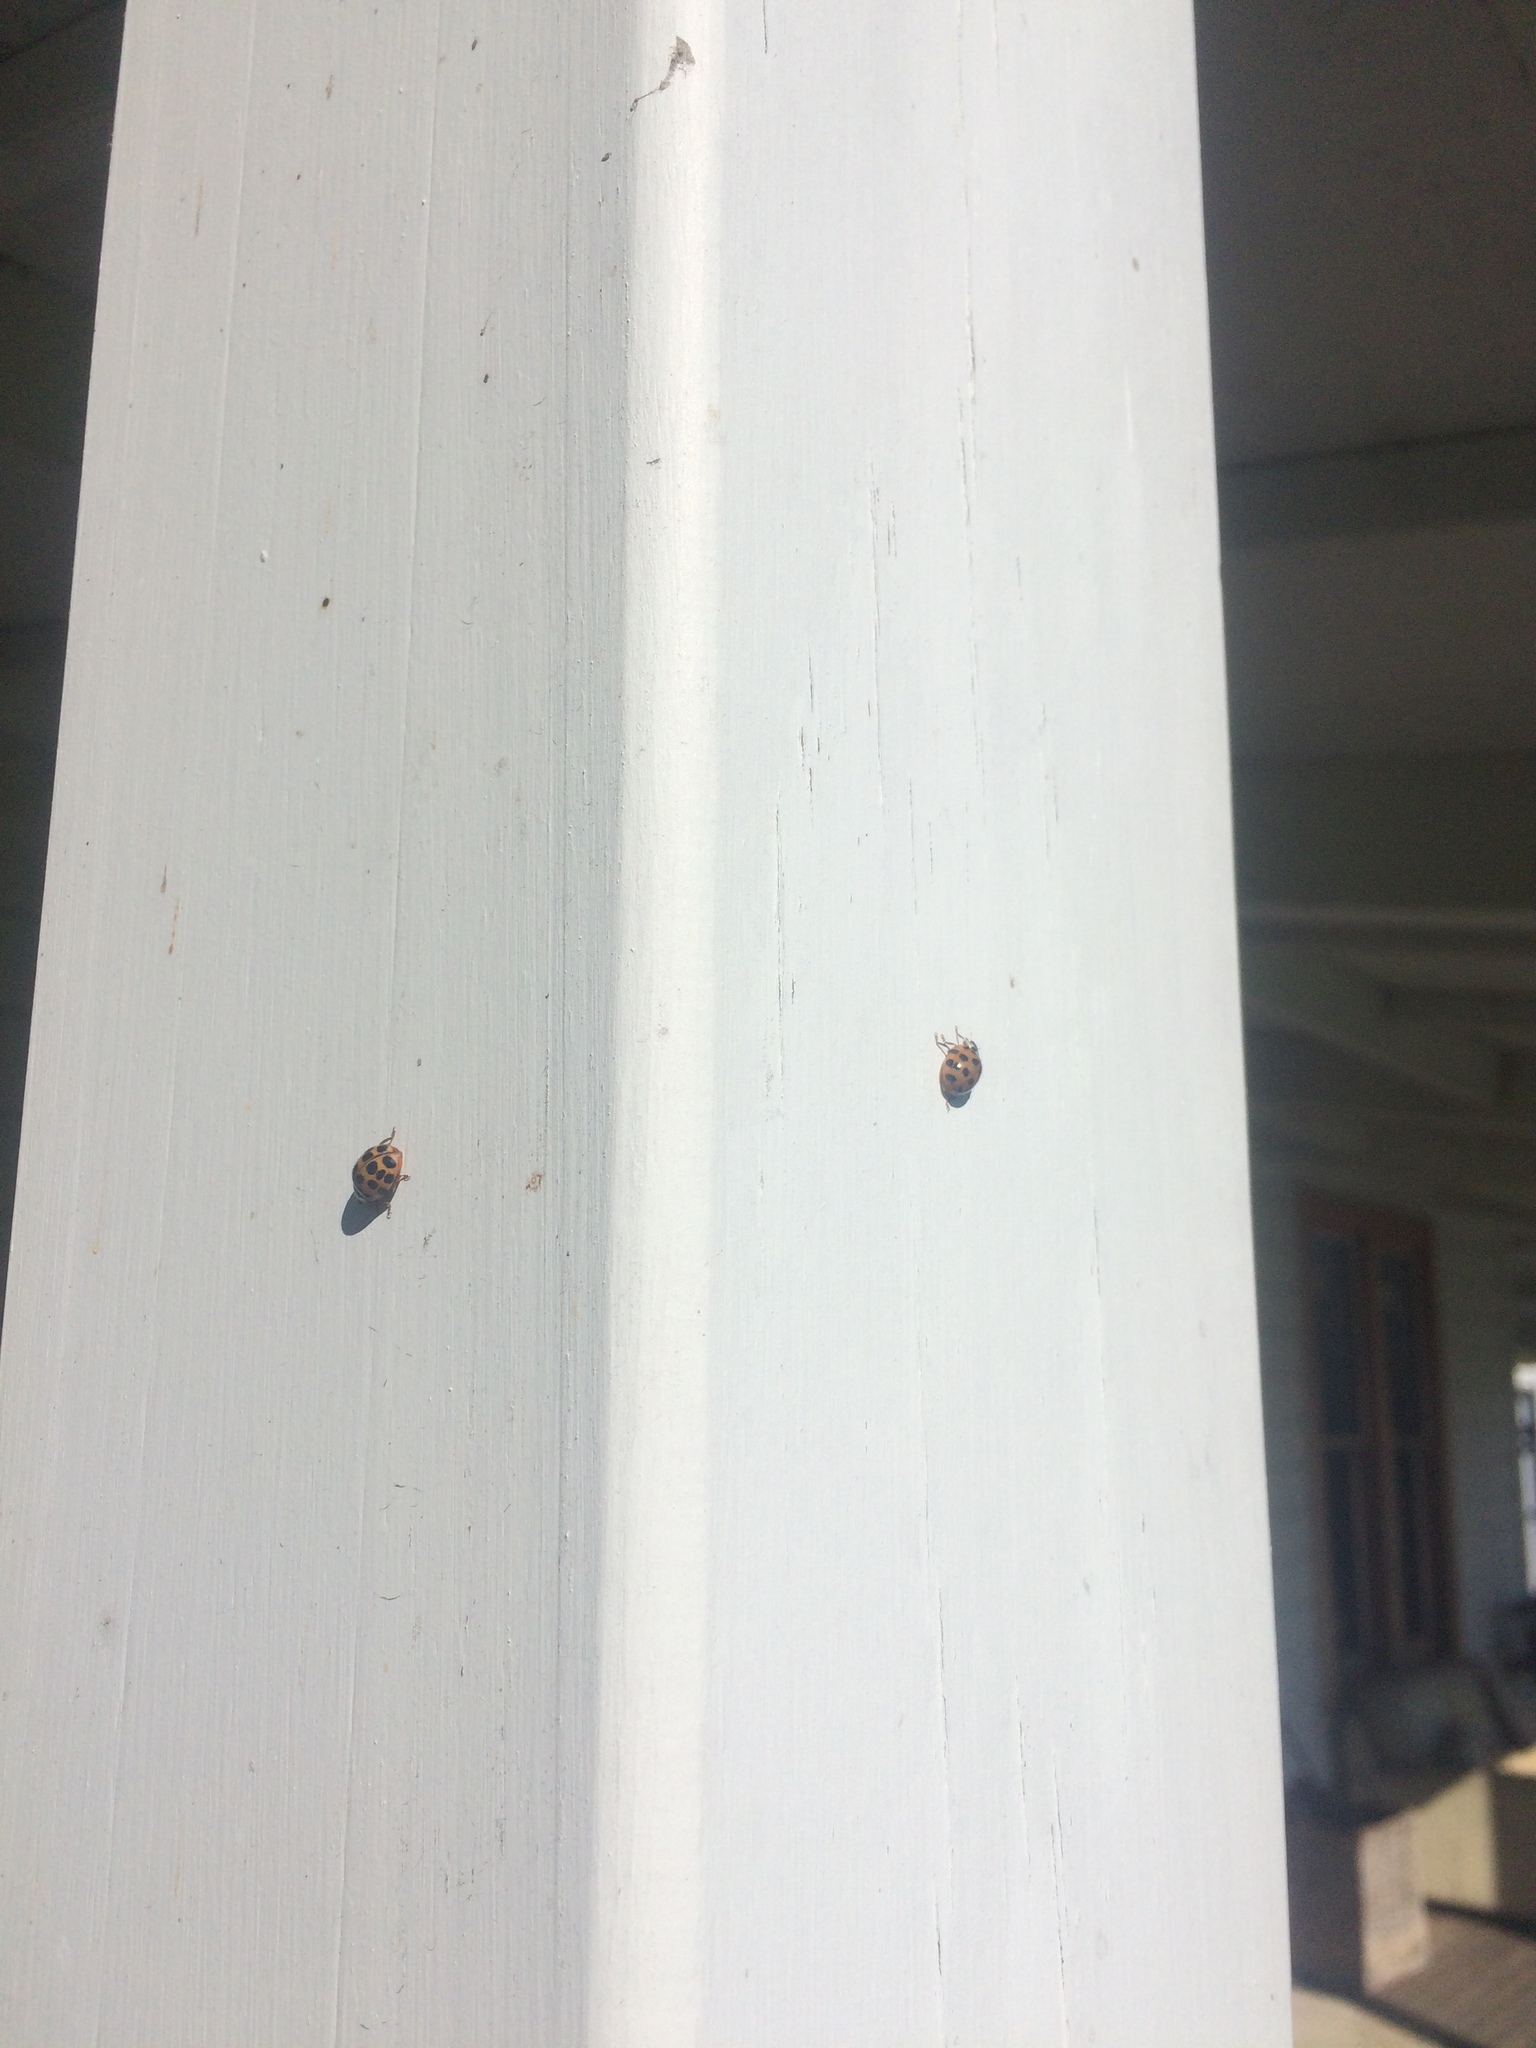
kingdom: Animalia
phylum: Arthropoda
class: Insecta
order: Coleoptera
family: Coccinellidae
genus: Harmonia
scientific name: Harmonia axyridis
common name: Harlequin ladybird
